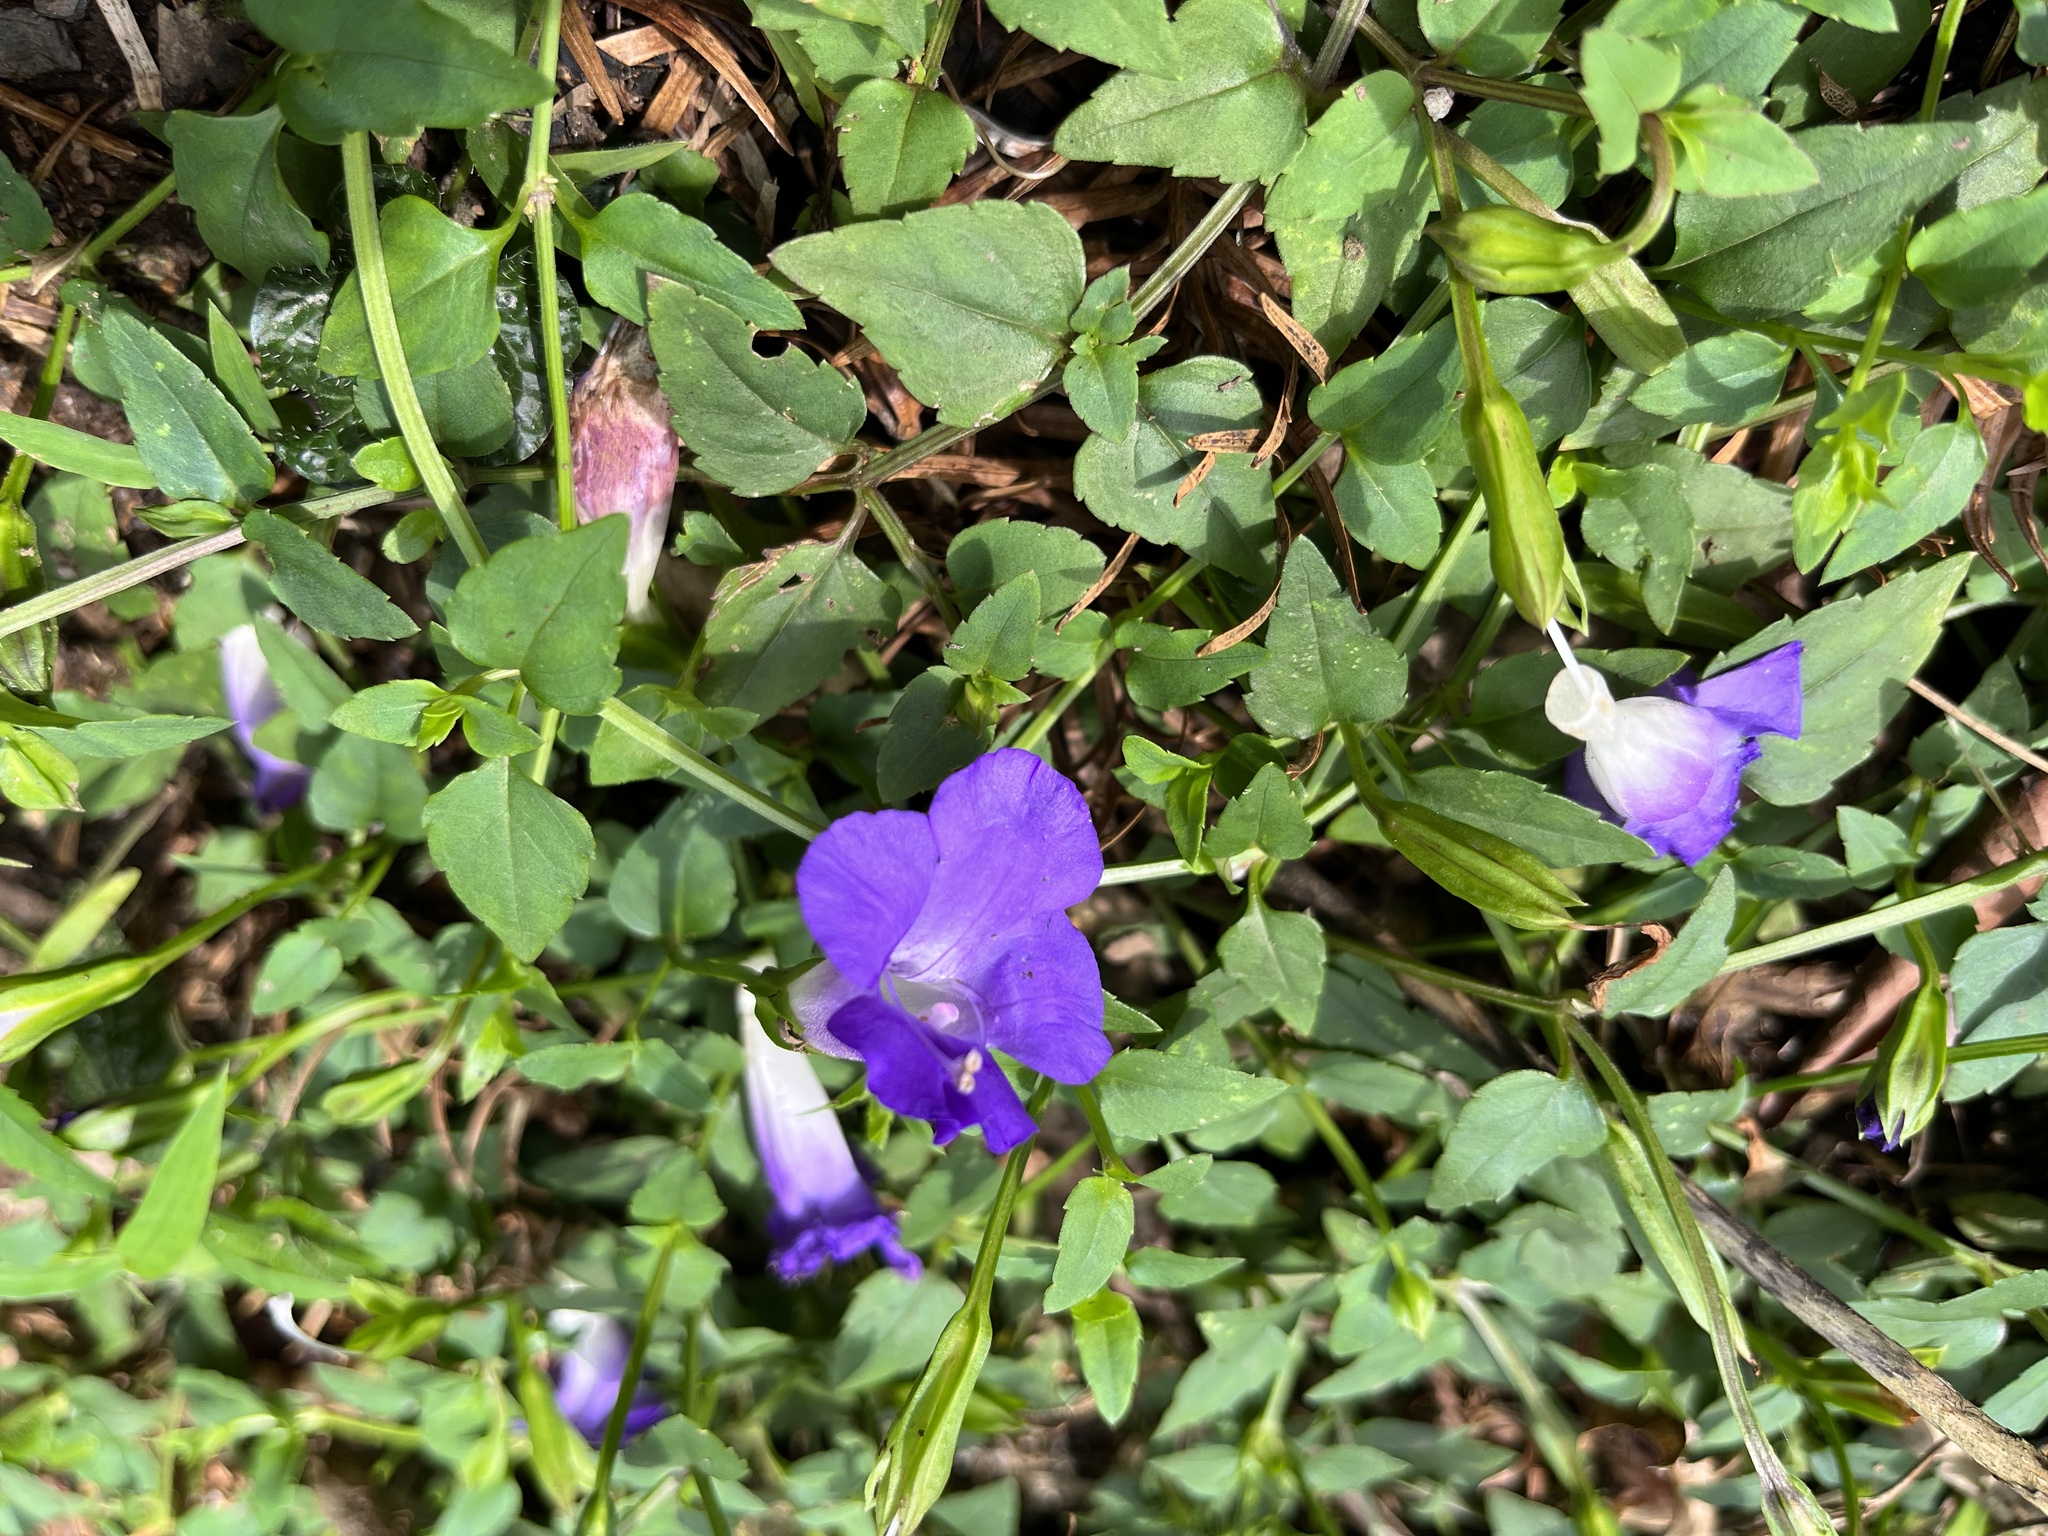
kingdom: Plantae
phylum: Tracheophyta
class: Magnoliopsida
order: Lamiales
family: Linderniaceae
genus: Torenia
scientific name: Torenia concolor
